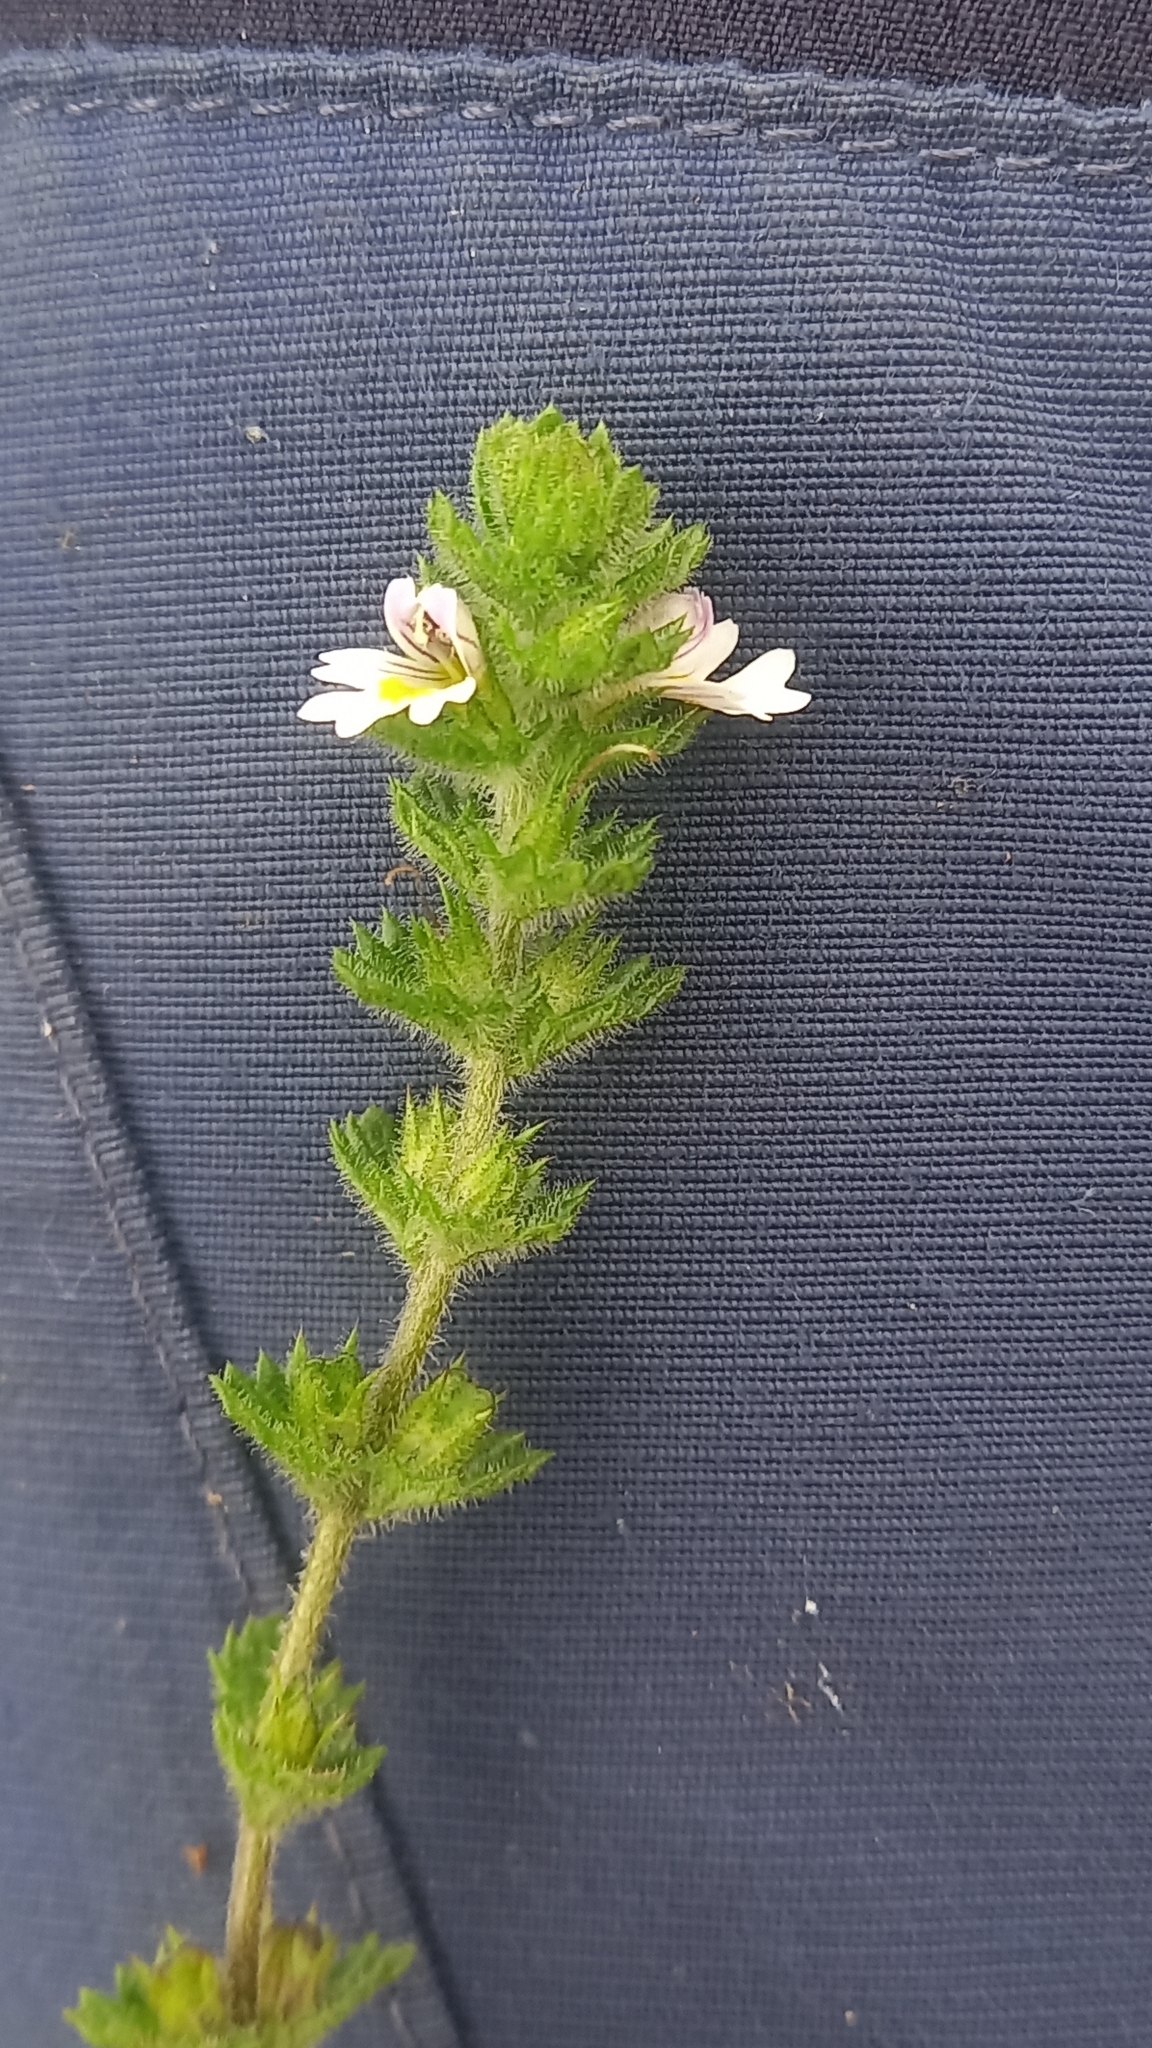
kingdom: Plantae
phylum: Tracheophyta
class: Magnoliopsida
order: Lamiales
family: Orobanchaceae
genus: Euphrasia
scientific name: Euphrasia officinalis
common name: Eyebright
